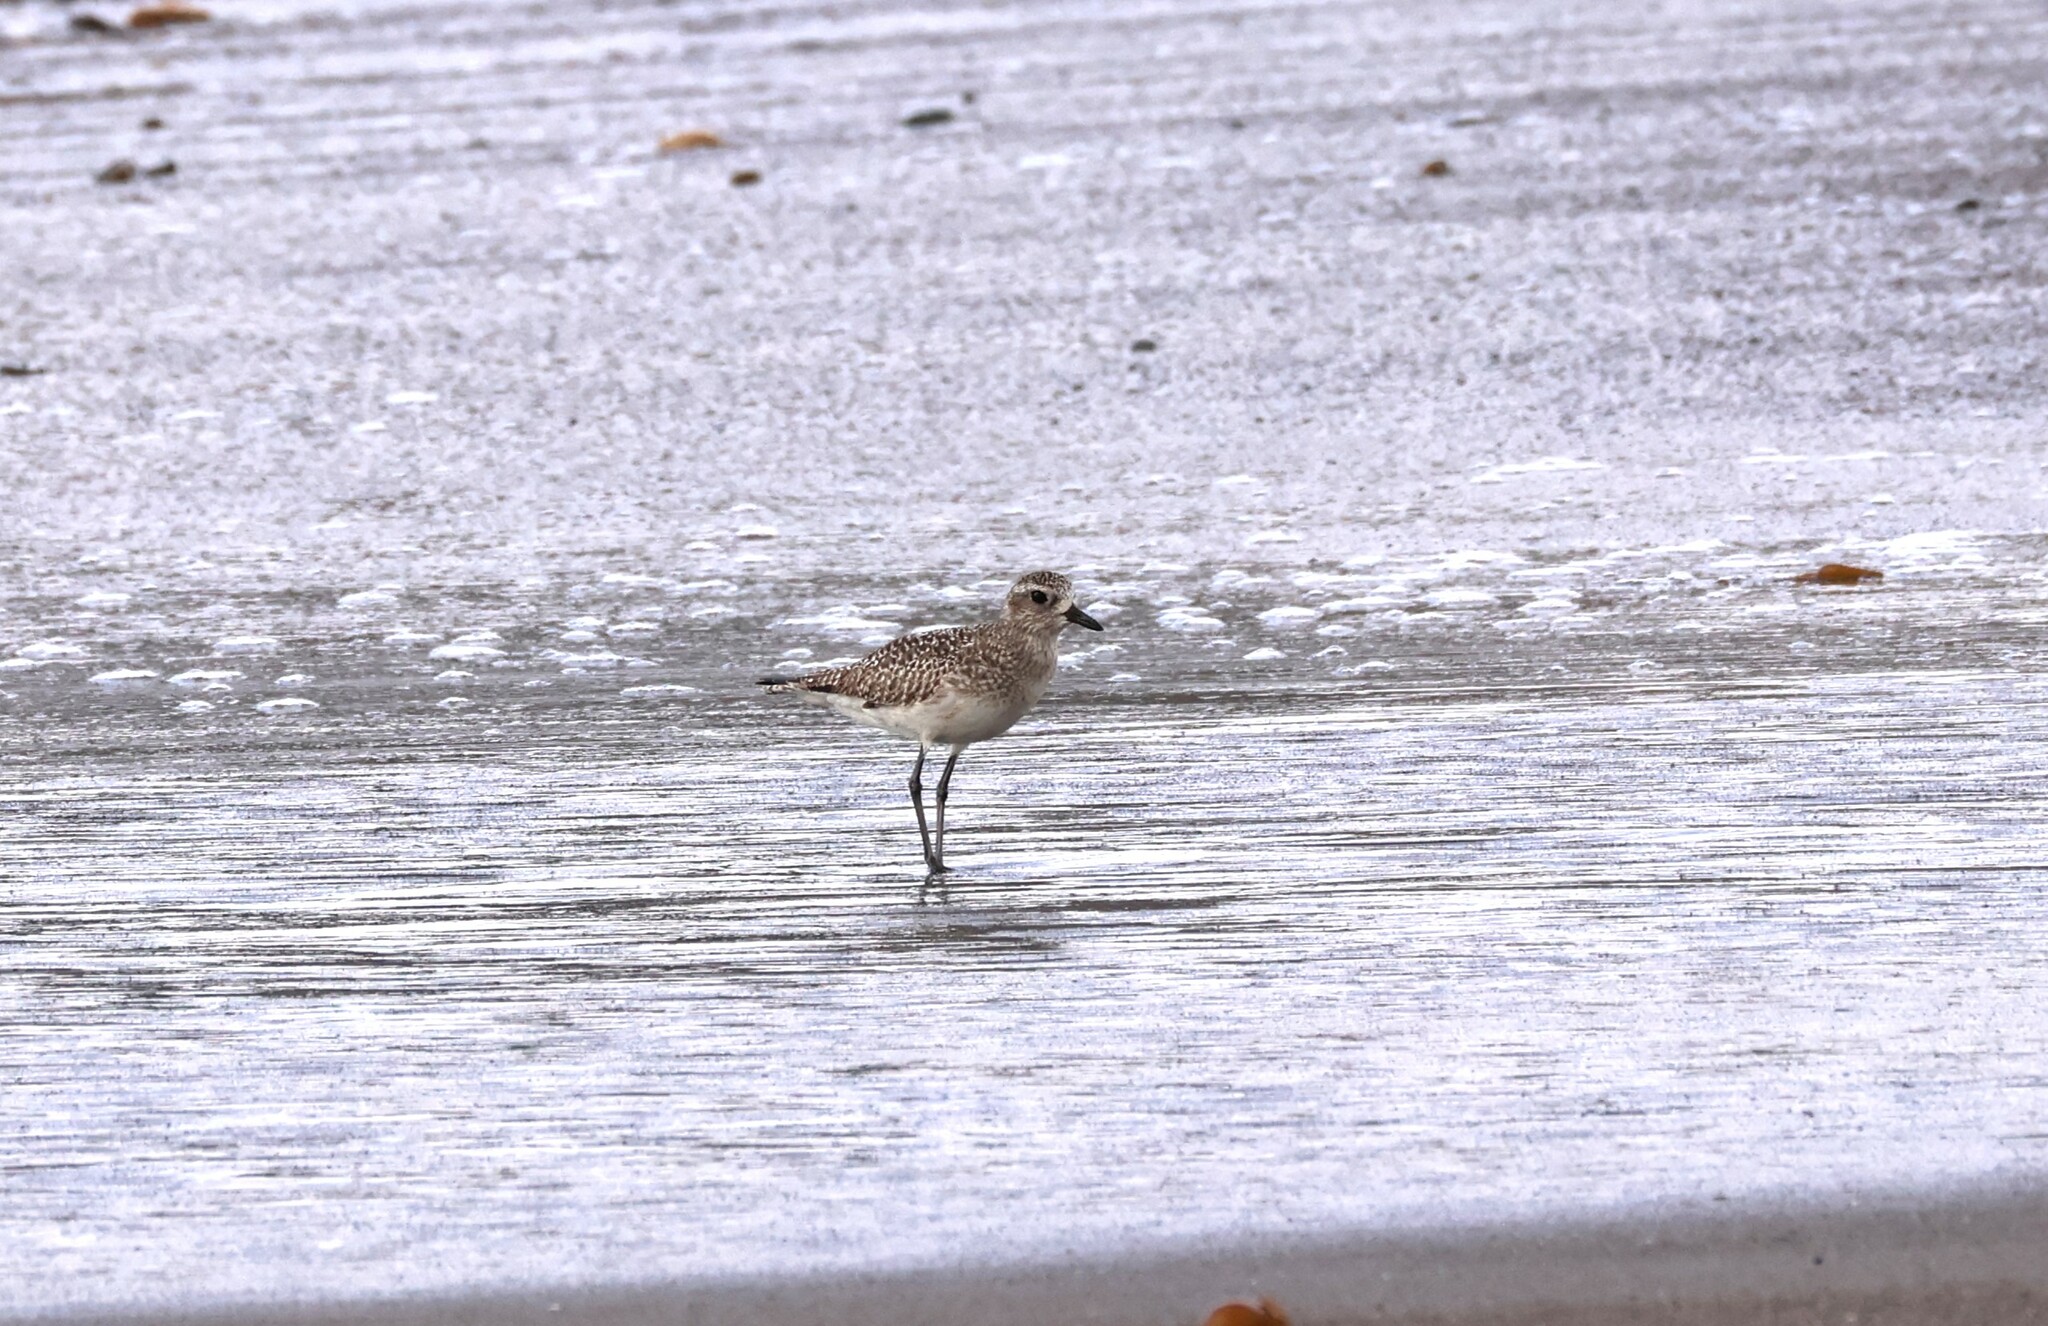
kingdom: Animalia
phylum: Chordata
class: Aves
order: Charadriiformes
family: Charadriidae
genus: Pluvialis
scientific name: Pluvialis squatarola
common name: Grey plover
